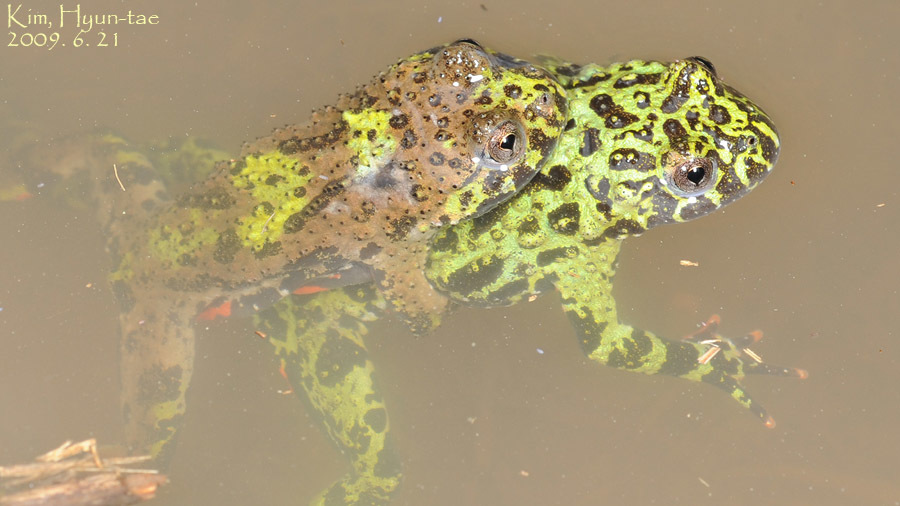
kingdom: Animalia
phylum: Chordata
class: Amphibia
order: Anura
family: Bombinatoridae
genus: Bombina
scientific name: Bombina orientalis
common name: Oriental firebelly toad
